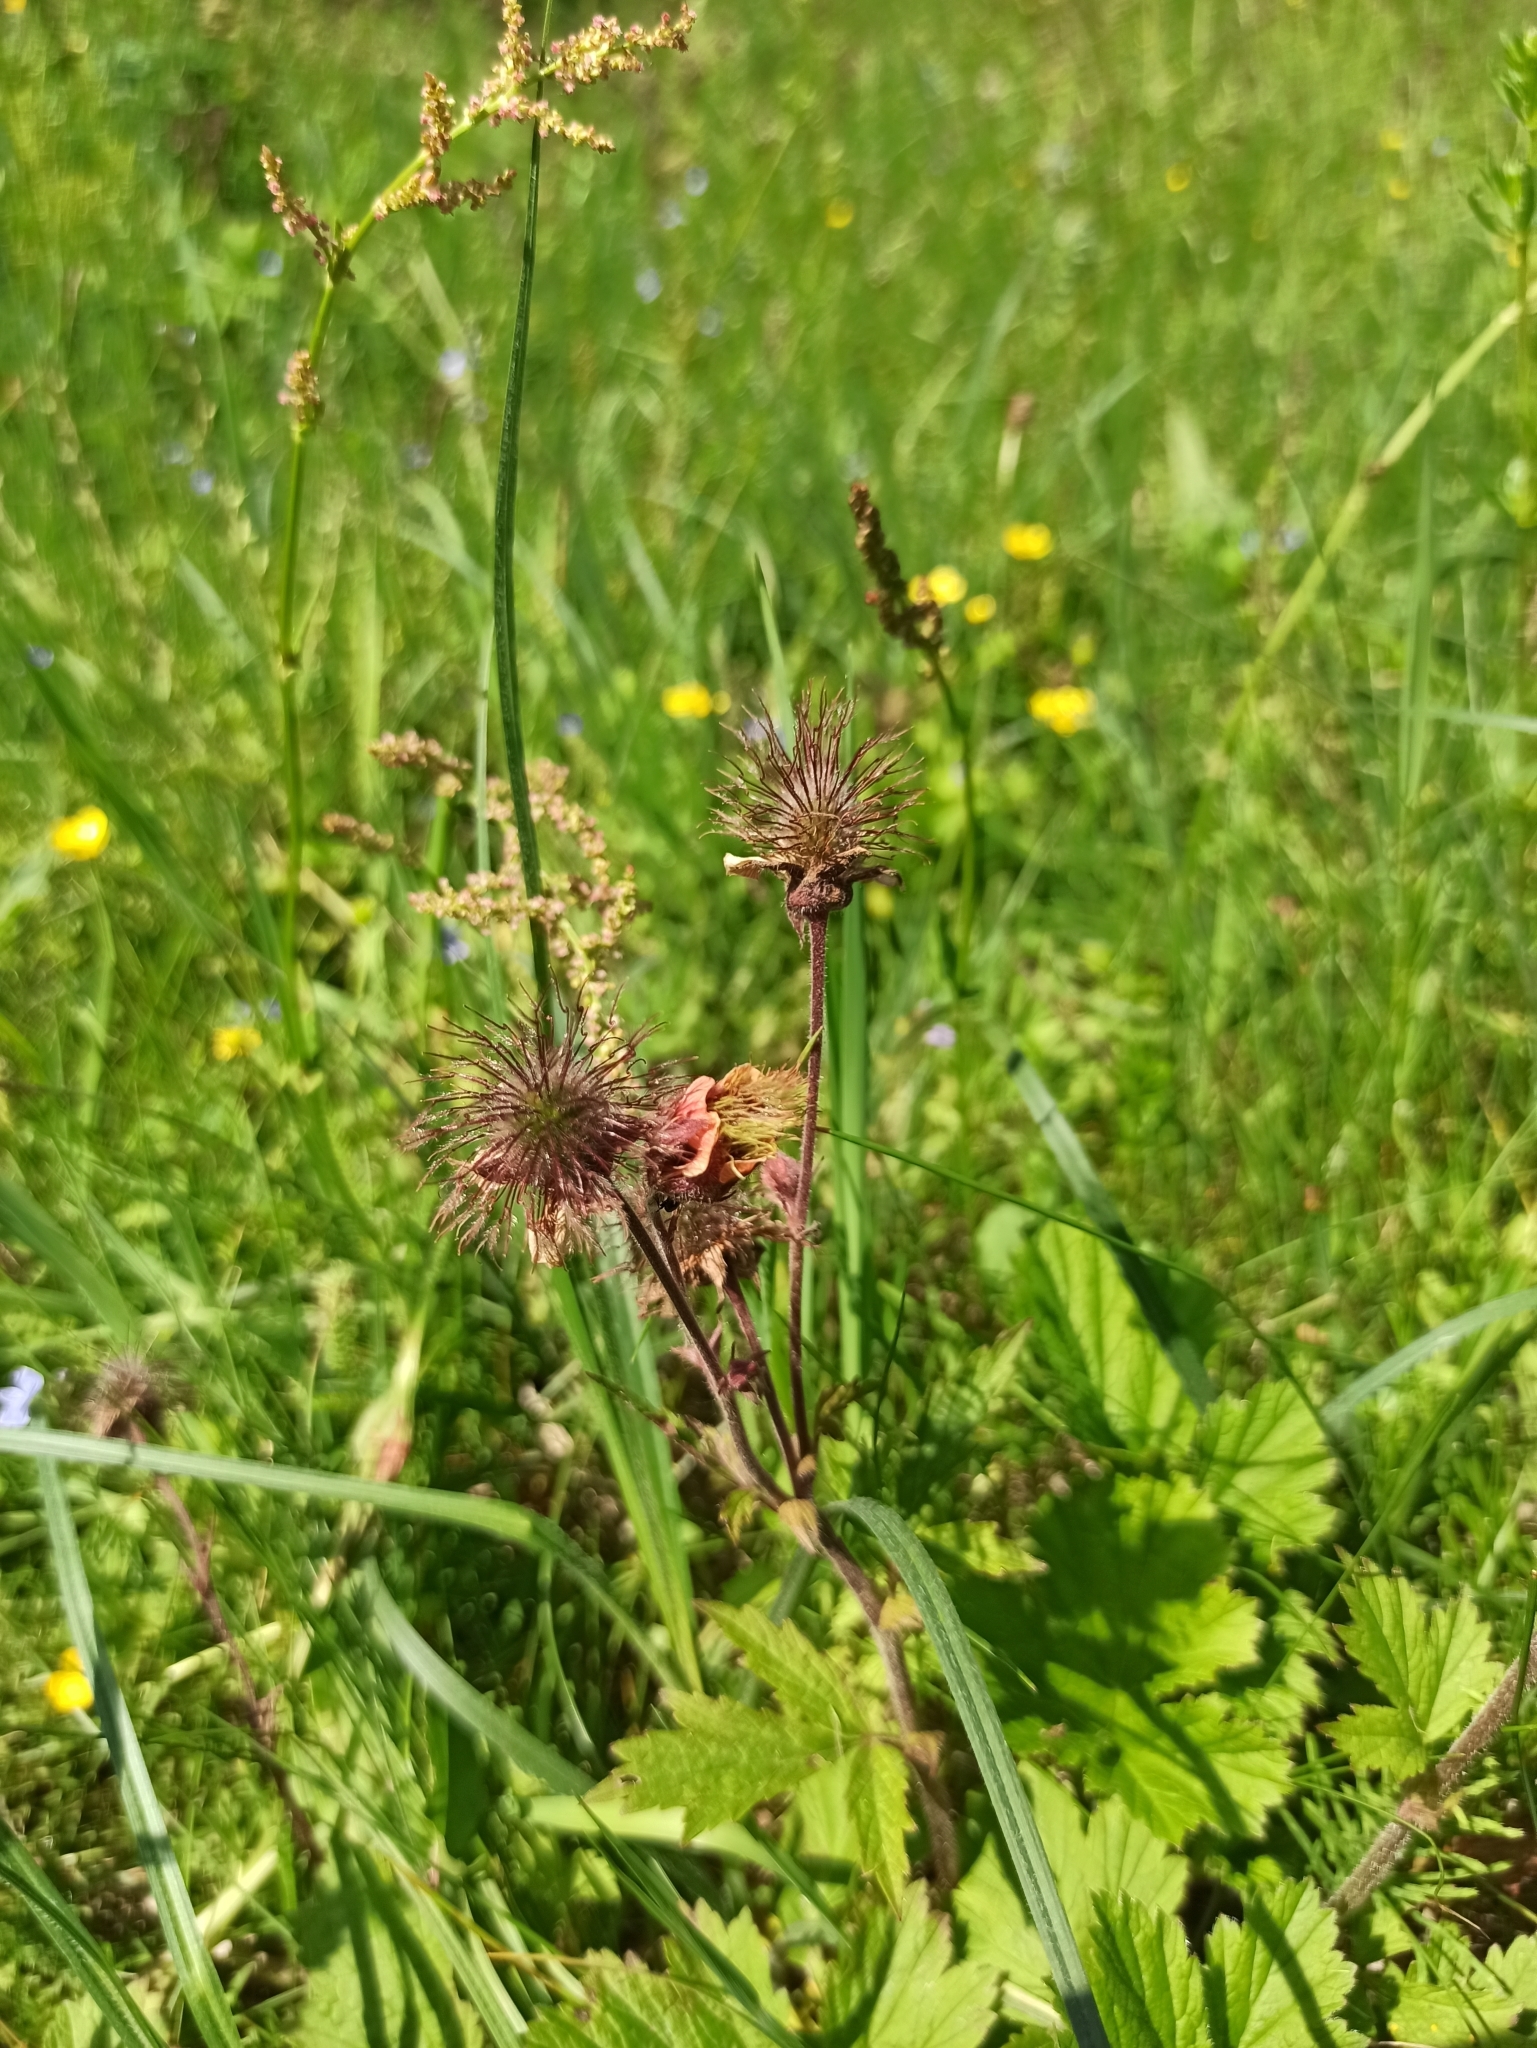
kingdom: Plantae
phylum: Tracheophyta
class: Magnoliopsida
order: Rosales
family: Rosaceae
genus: Geum
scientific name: Geum rivale
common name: Water avens
